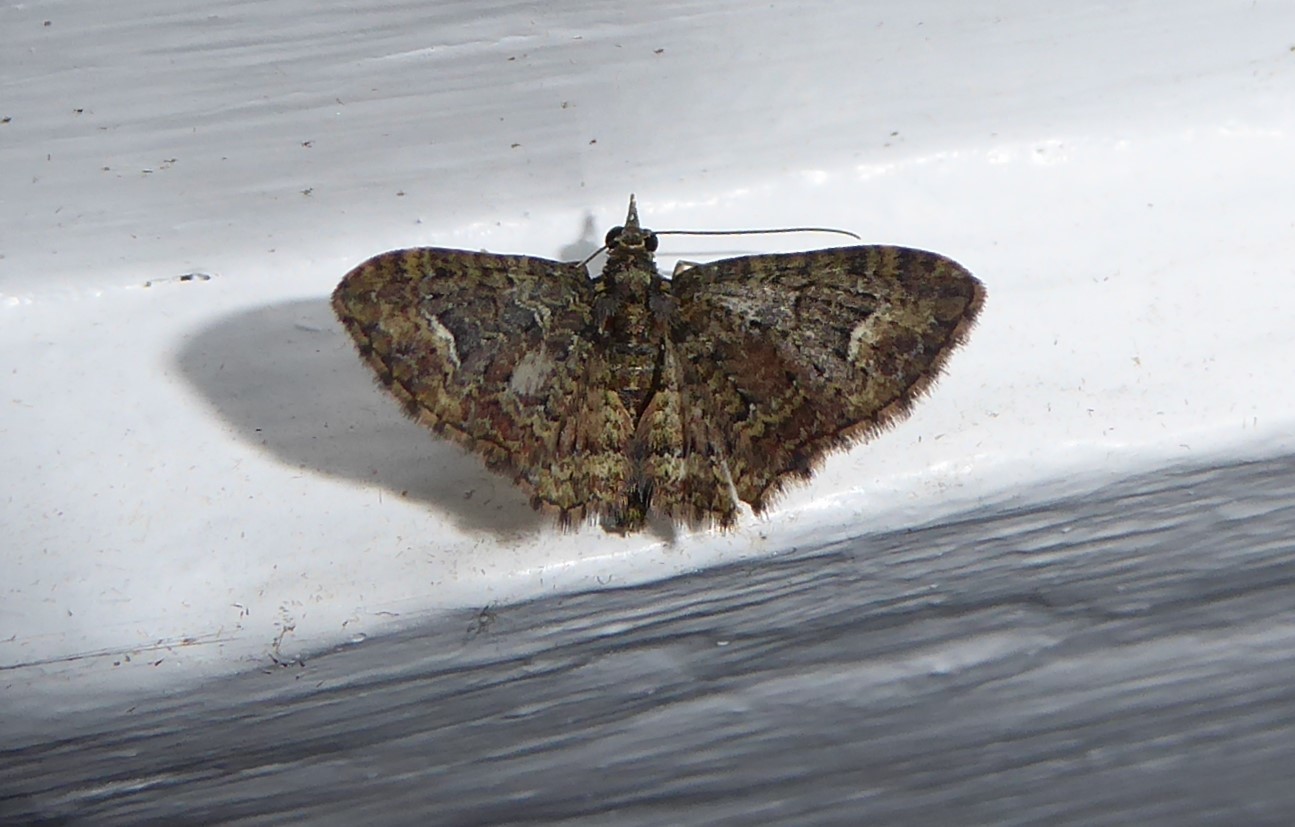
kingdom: Animalia
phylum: Arthropoda
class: Insecta
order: Lepidoptera
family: Geometridae
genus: Pasiphilodes
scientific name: Pasiphilodes testulata
